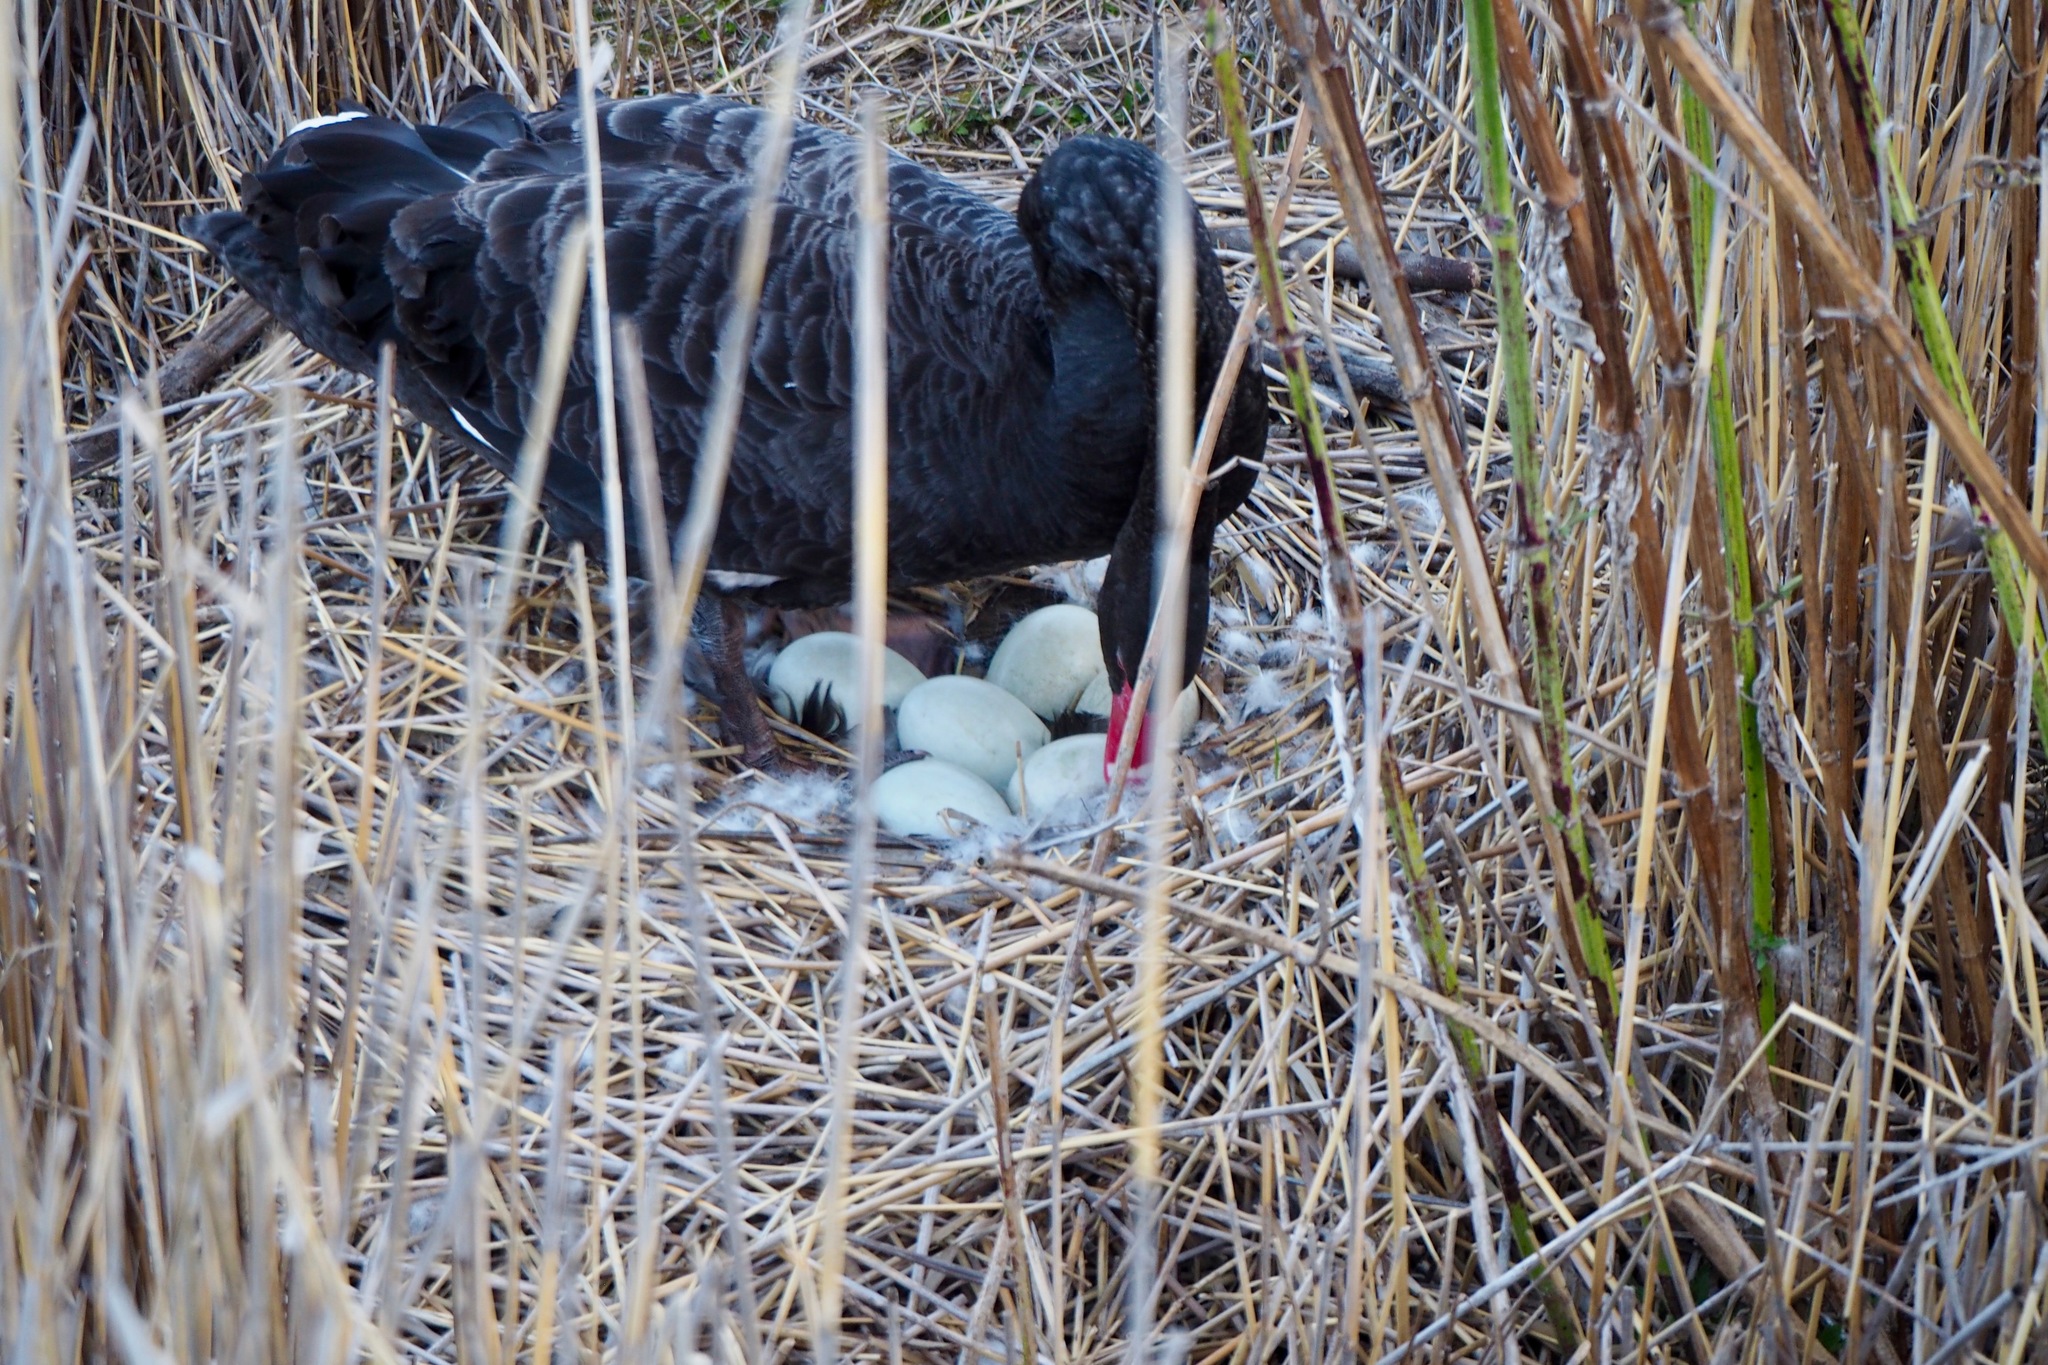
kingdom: Animalia
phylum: Chordata
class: Aves
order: Anseriformes
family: Anatidae
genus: Cygnus
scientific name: Cygnus atratus
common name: Black swan
